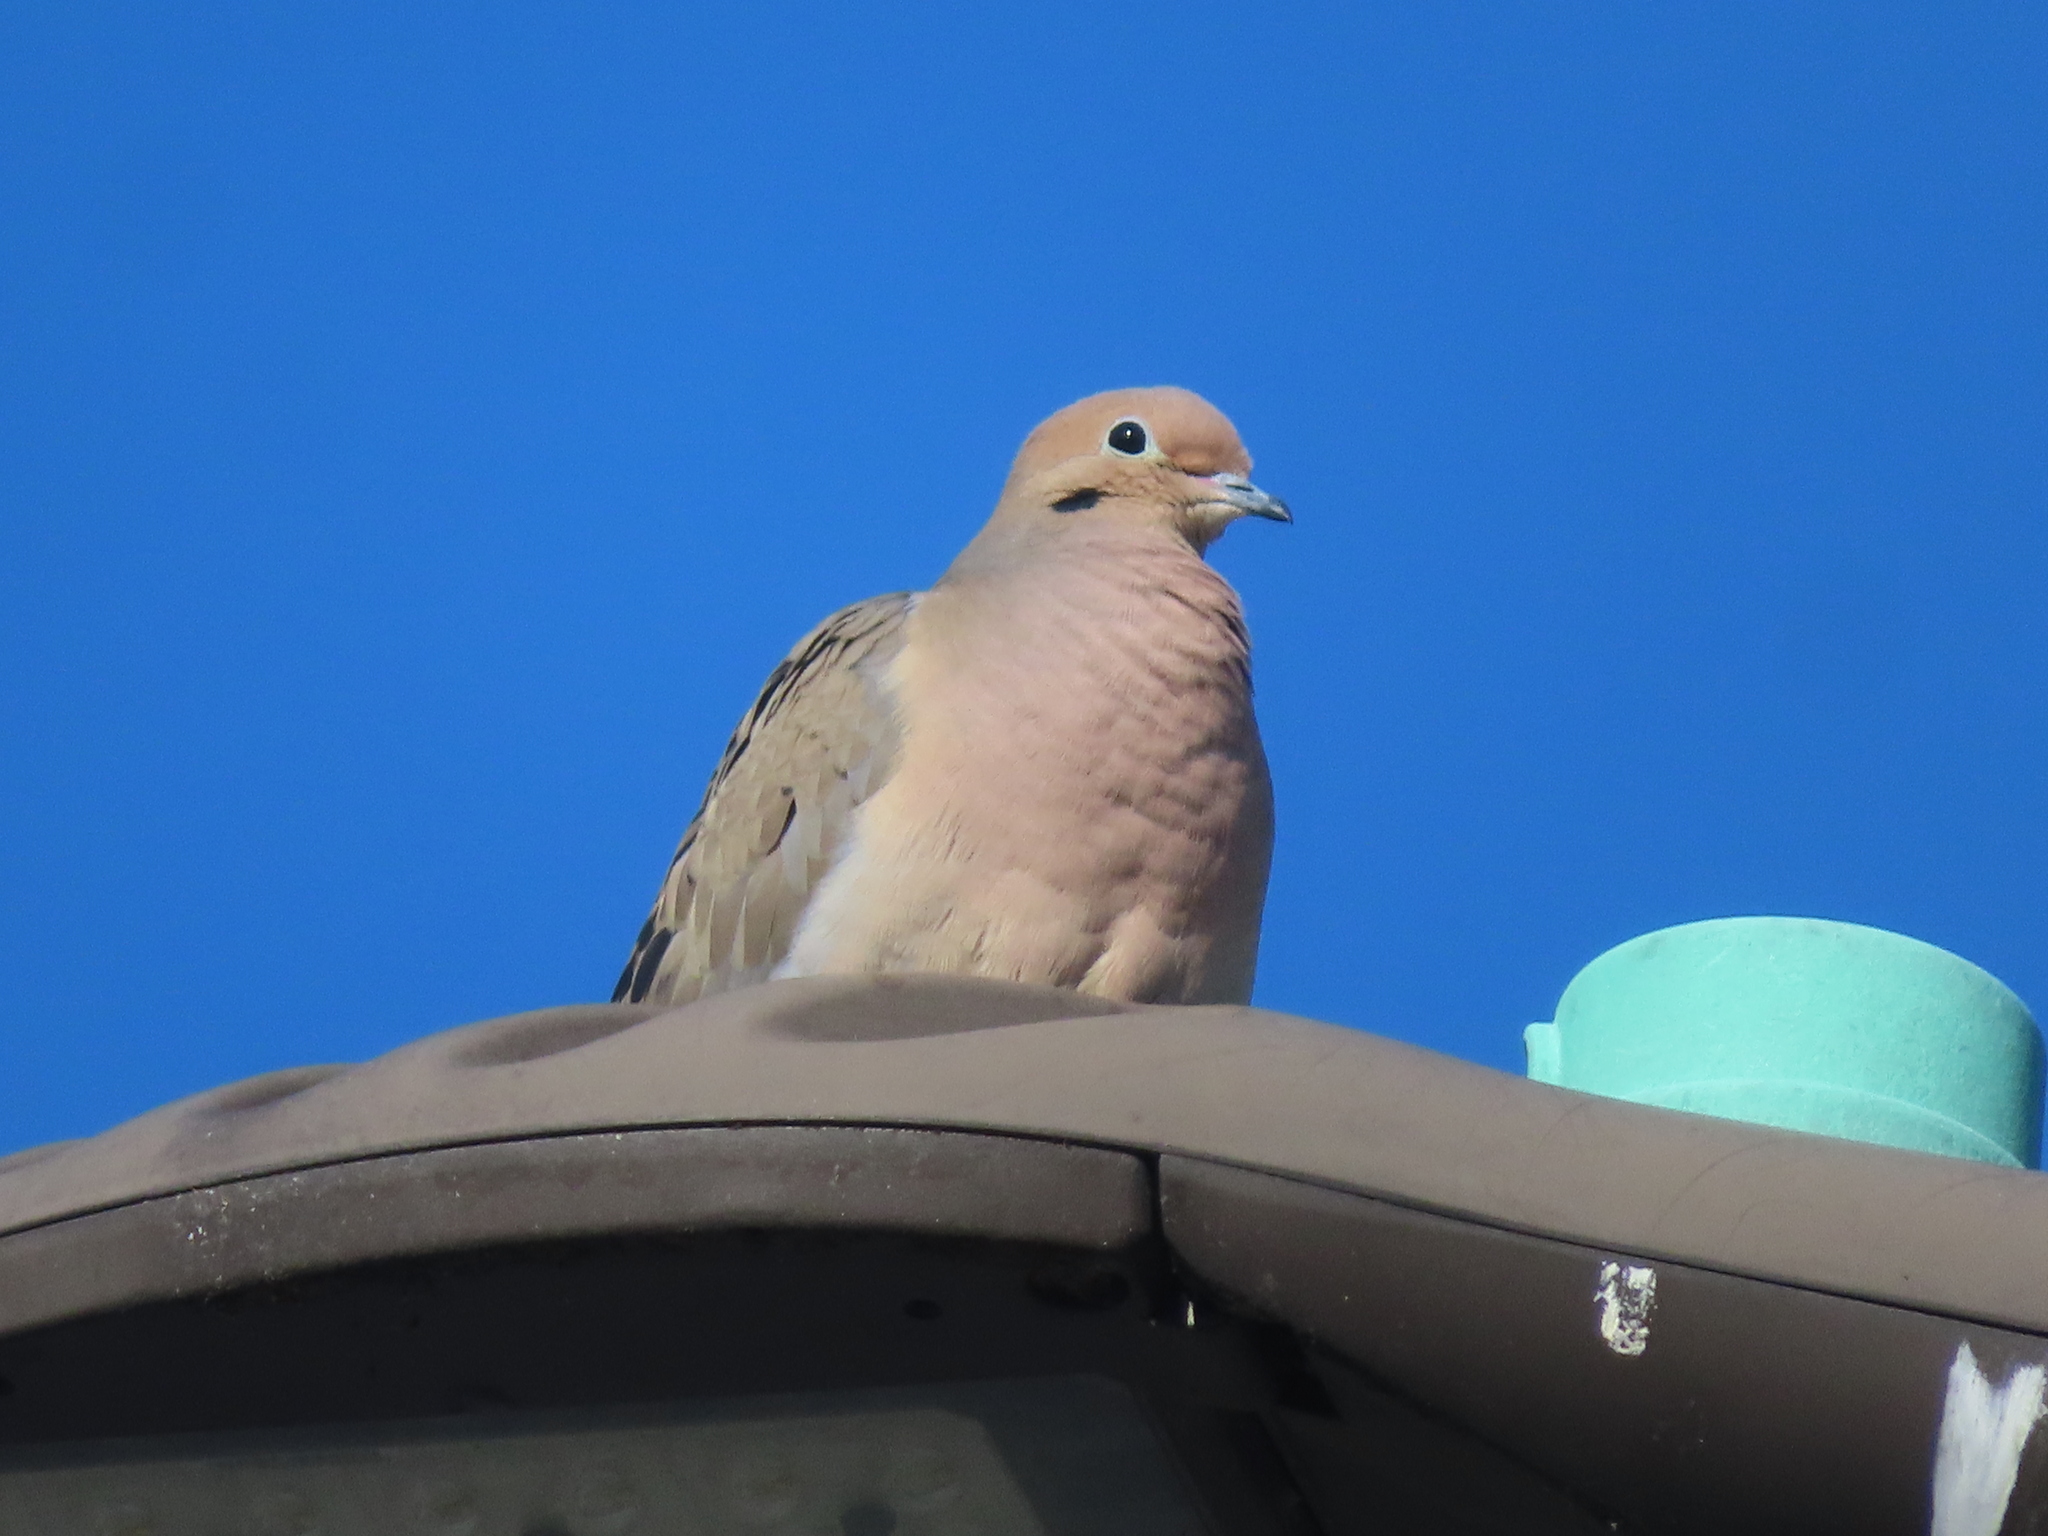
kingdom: Animalia
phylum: Chordata
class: Aves
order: Columbiformes
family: Columbidae
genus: Zenaida
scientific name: Zenaida macroura
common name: Mourning dove
